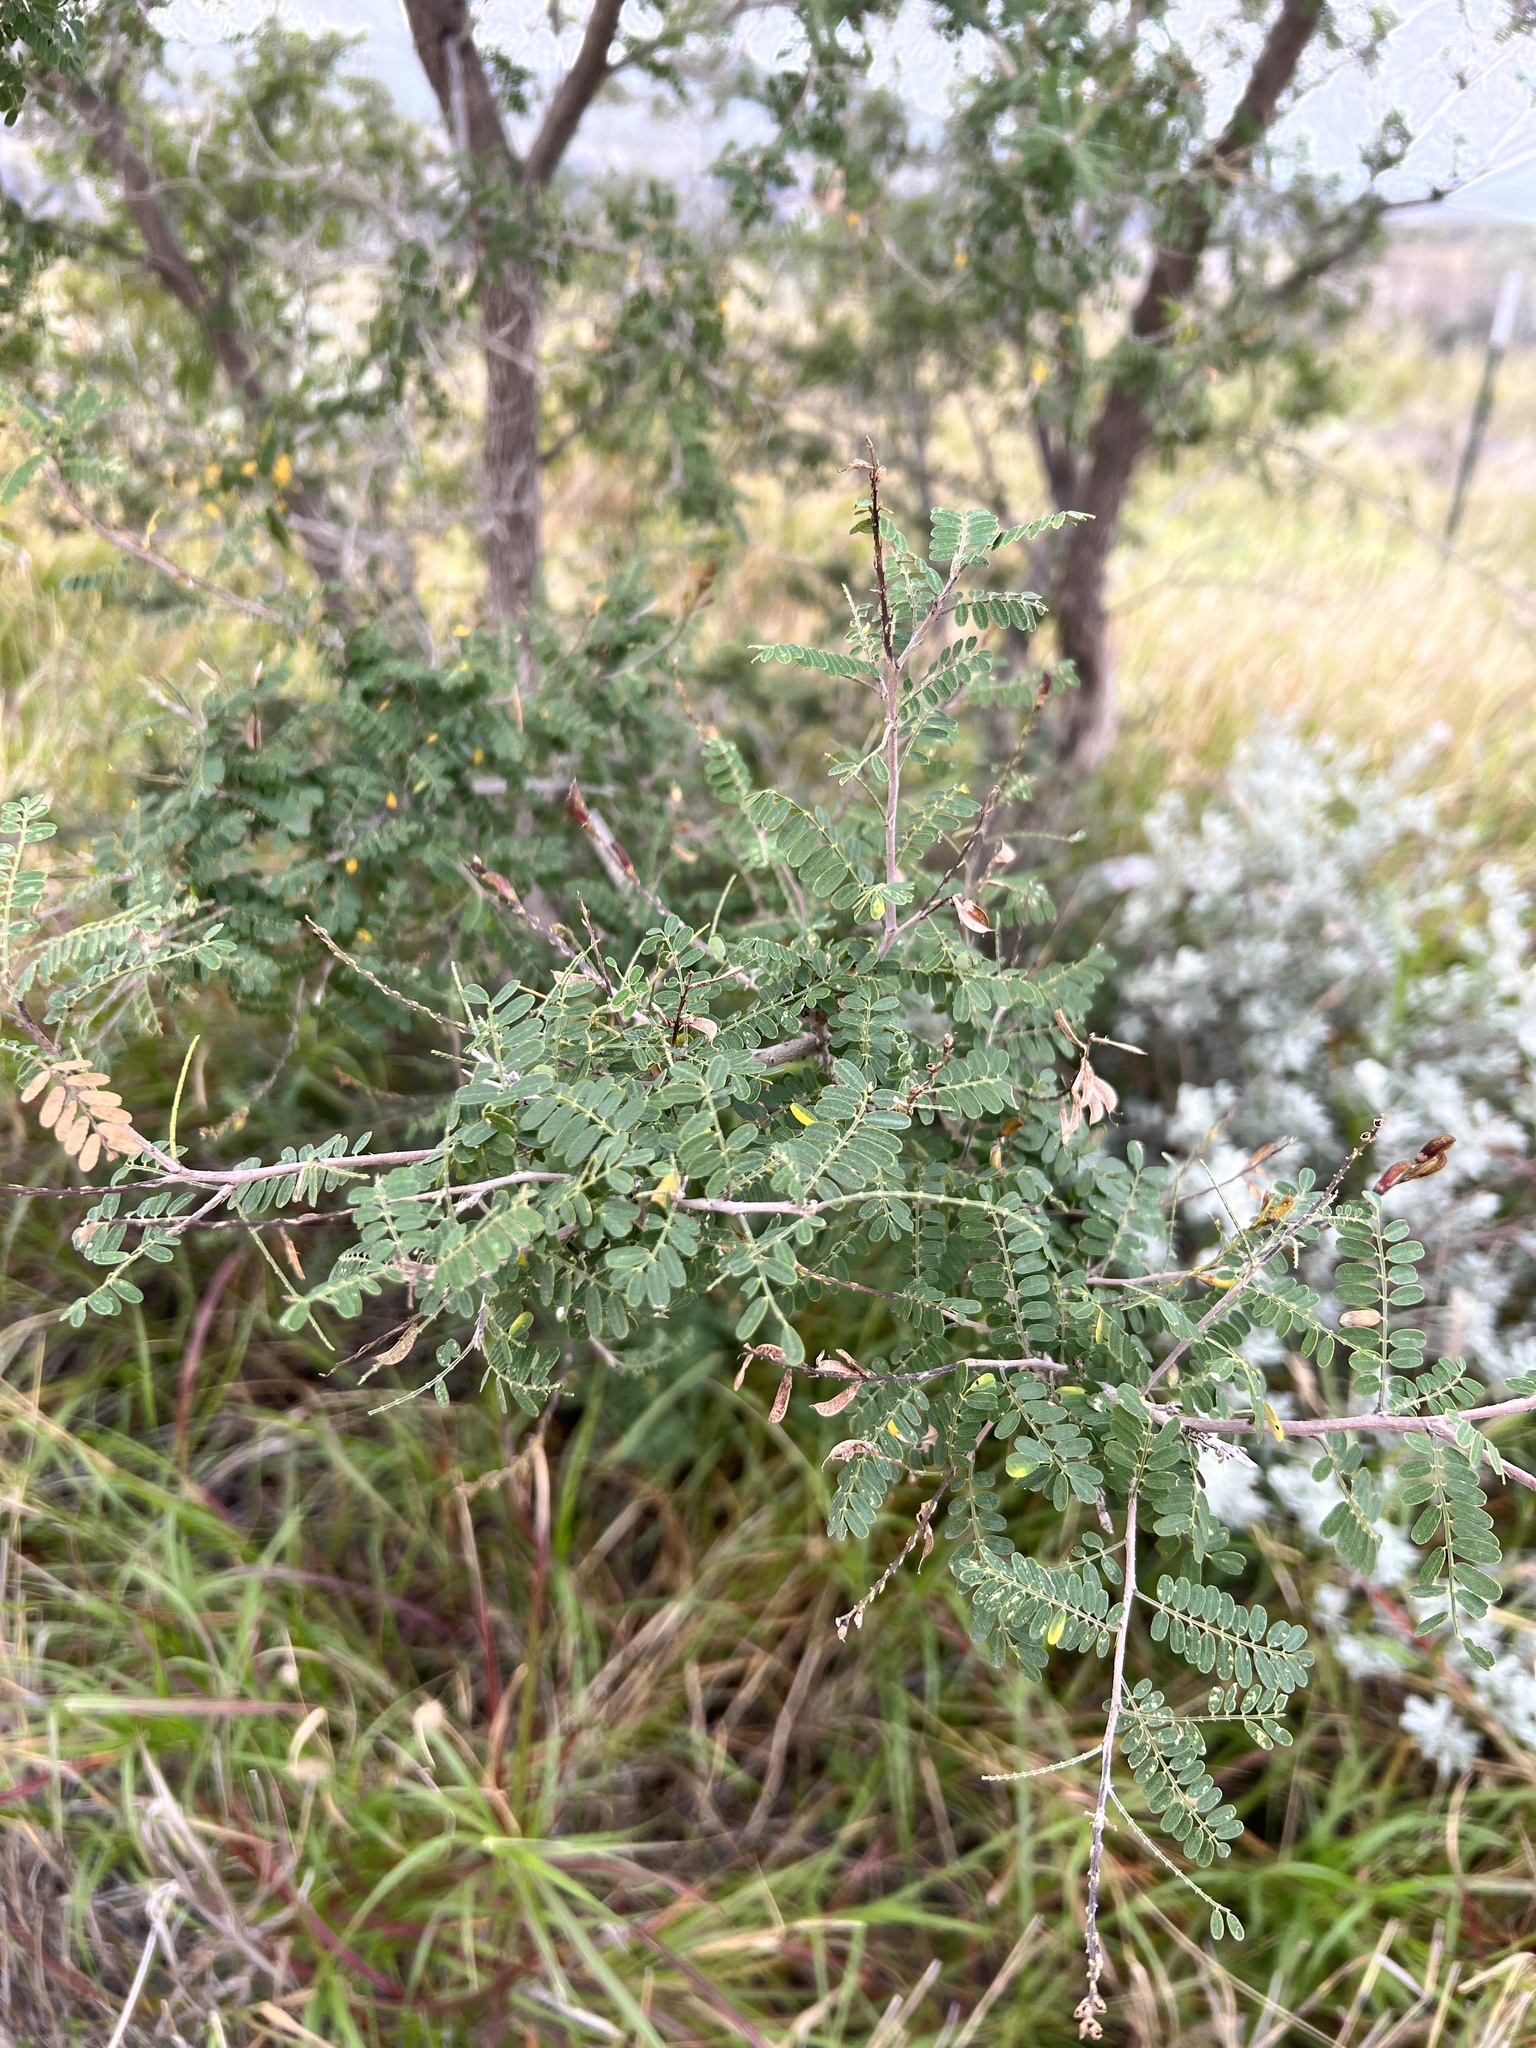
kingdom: Plantae
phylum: Tracheophyta
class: Magnoliopsida
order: Fabales
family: Fabaceae
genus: Eysenhardtia
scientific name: Eysenhardtia texana
